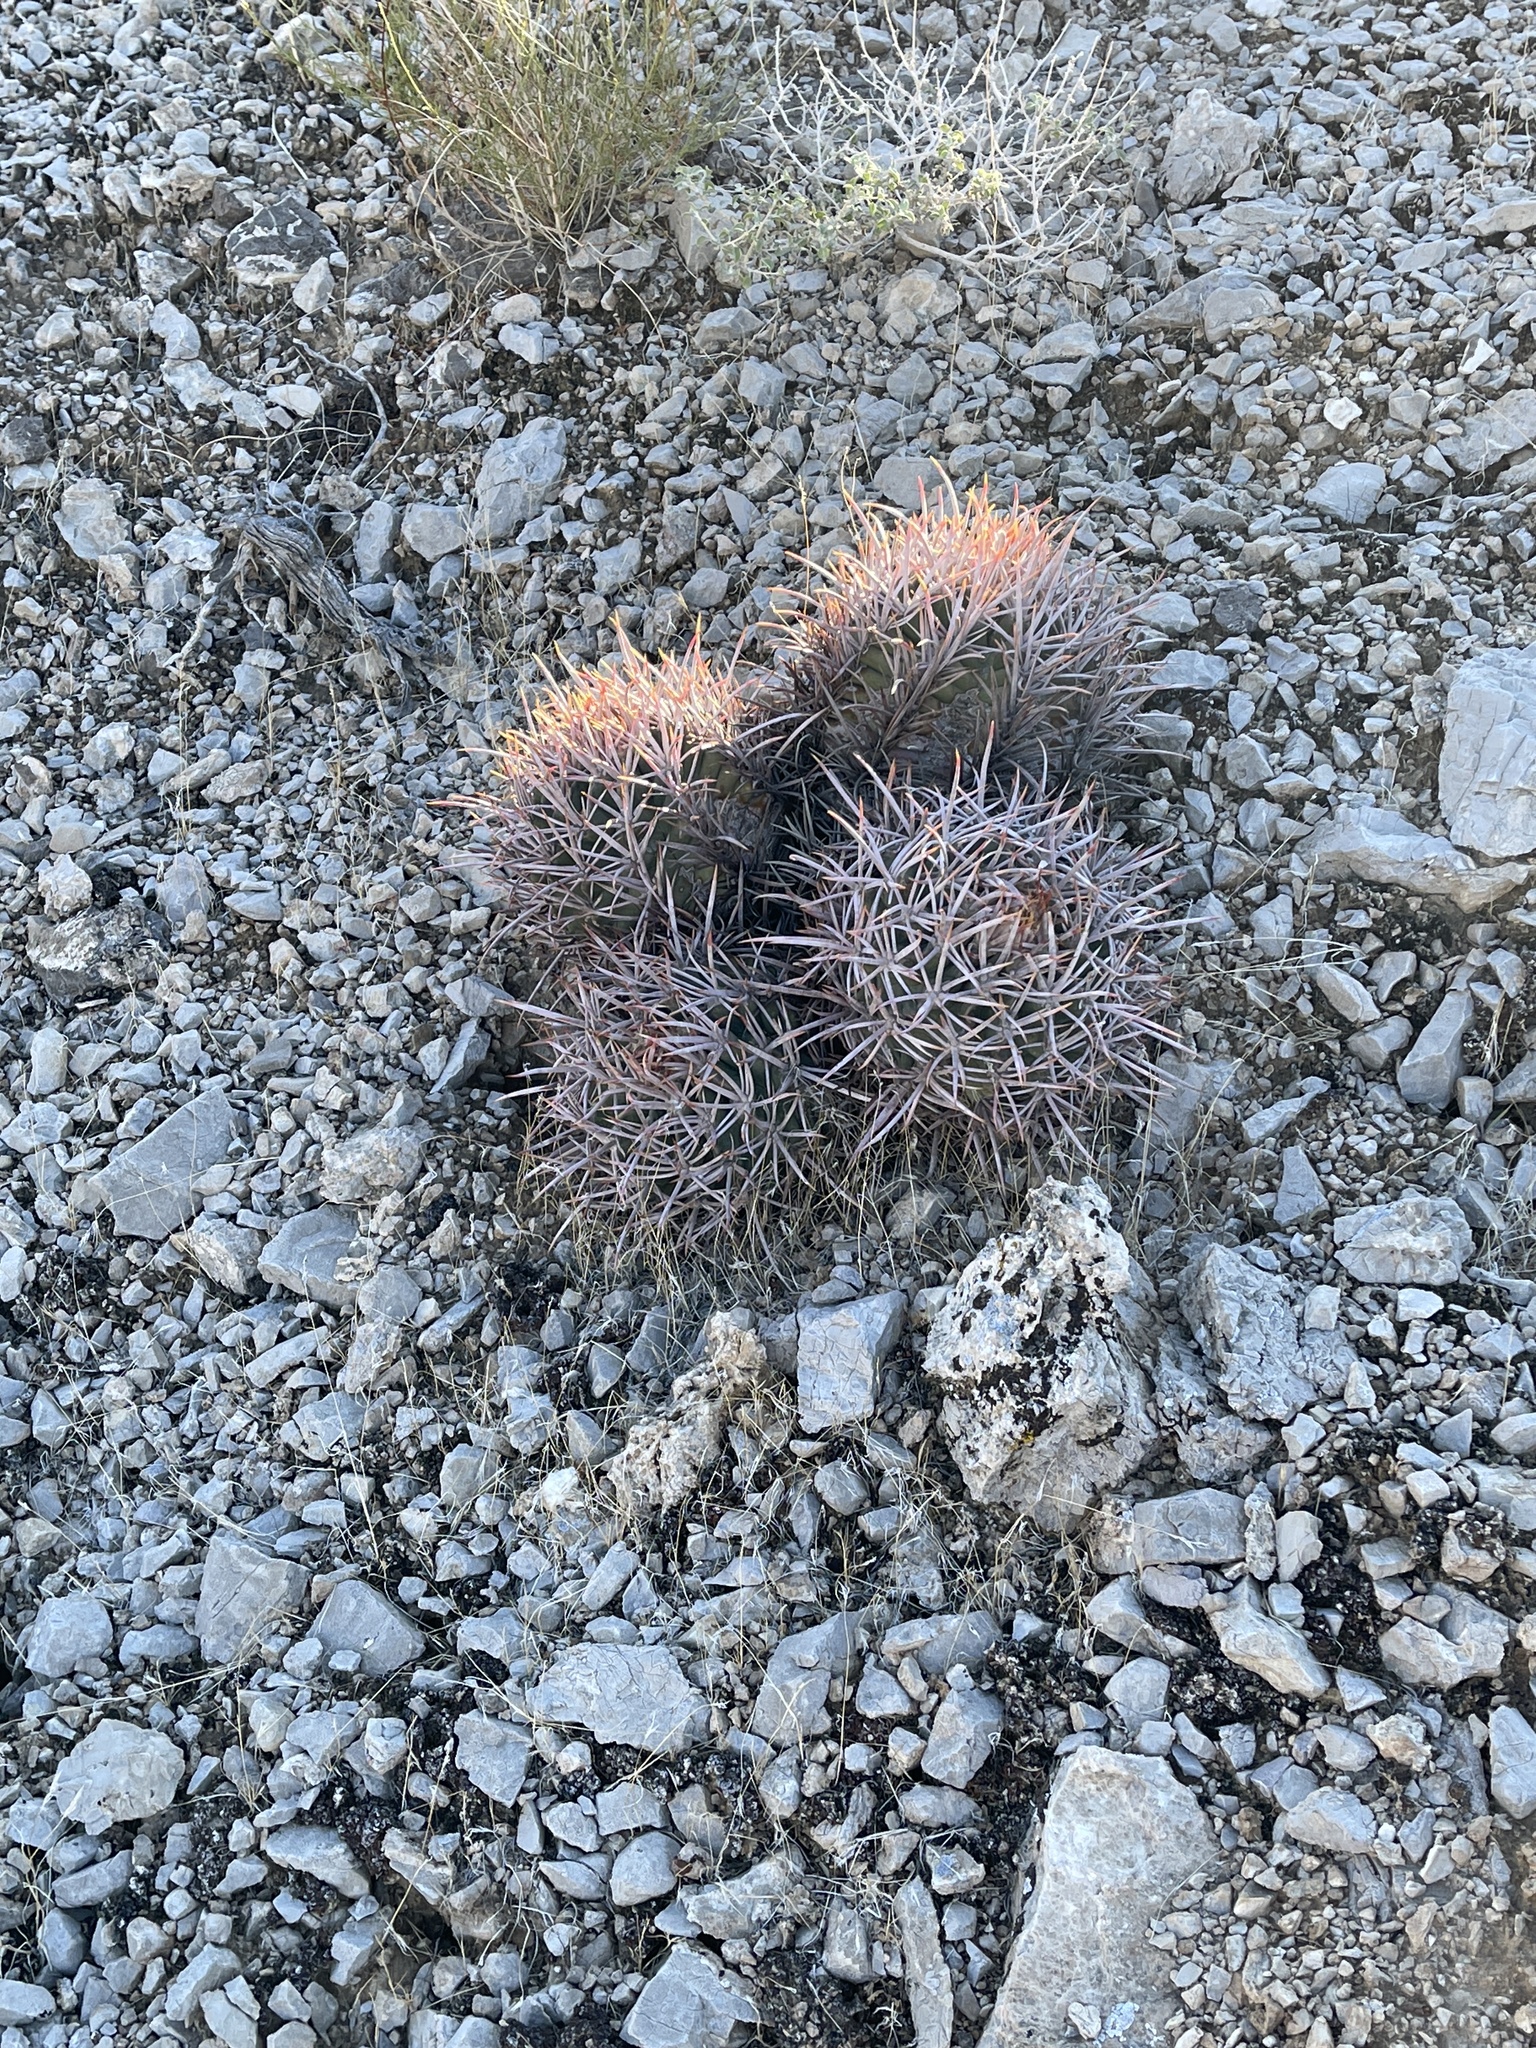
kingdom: Plantae
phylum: Tracheophyta
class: Magnoliopsida
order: Caryophyllales
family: Cactaceae
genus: Echinocactus
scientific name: Echinocactus polycephalus
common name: Cottontop cactus
